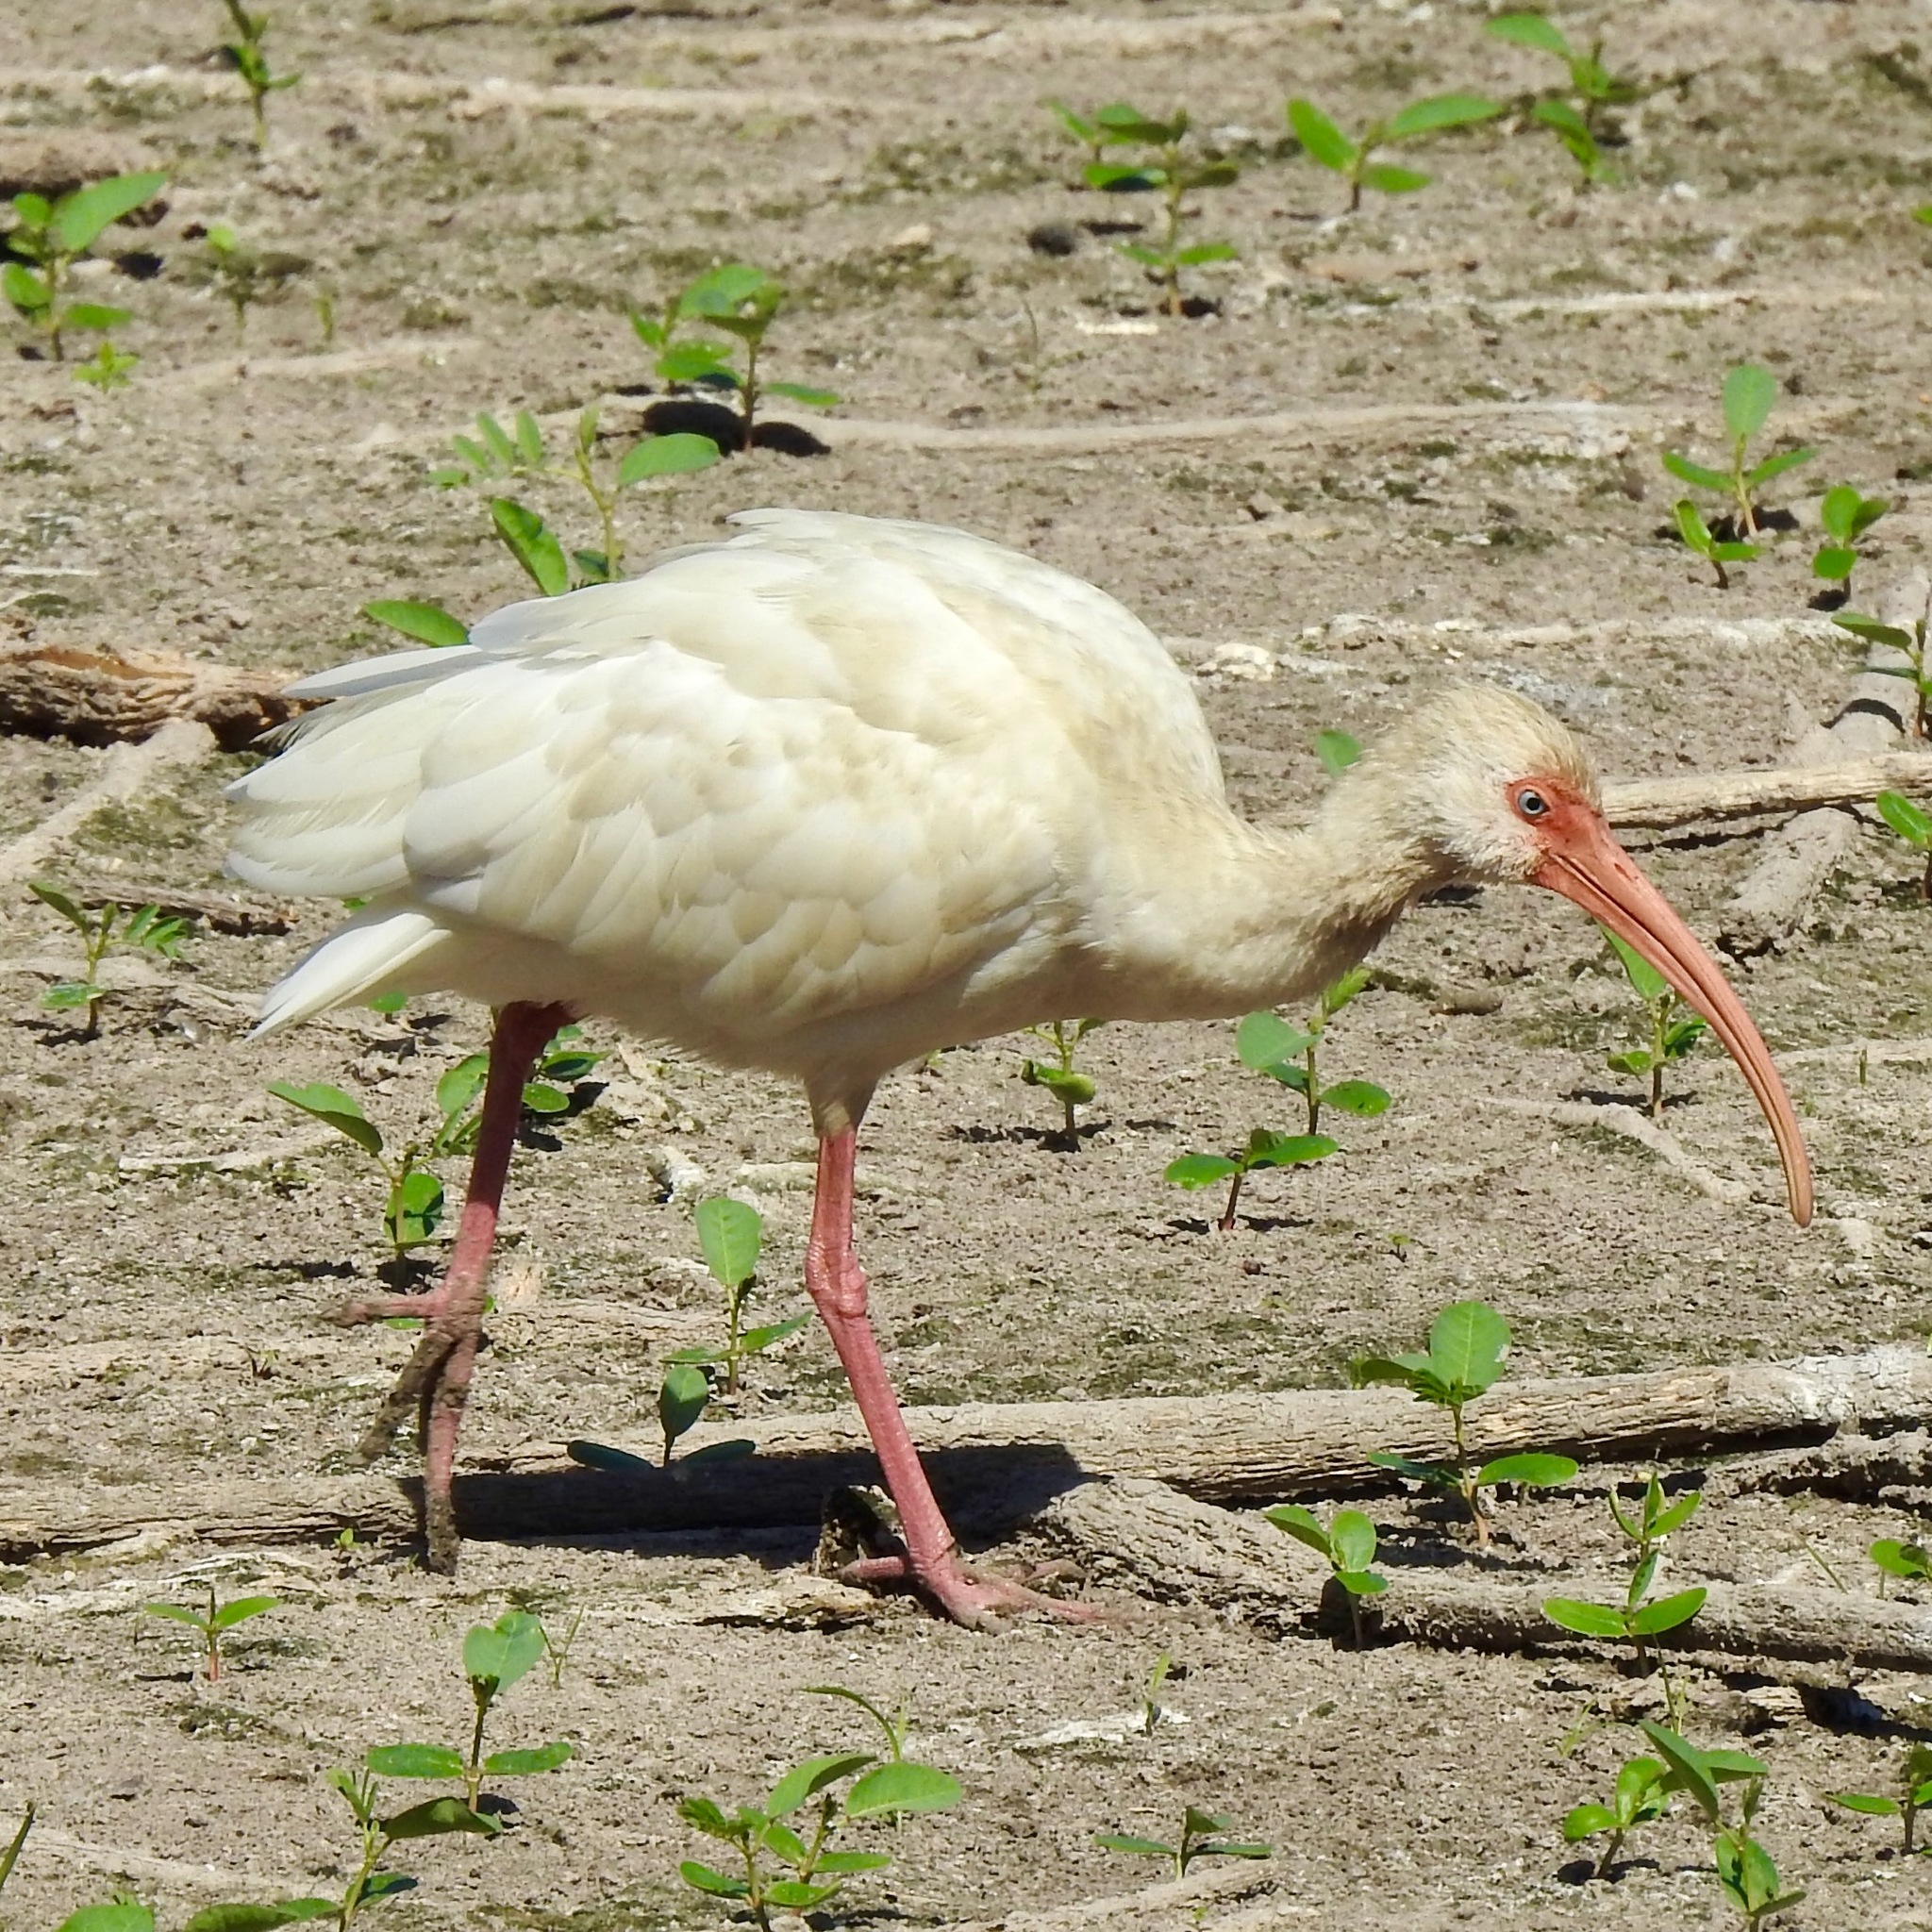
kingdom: Animalia
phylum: Chordata
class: Aves
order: Pelecaniformes
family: Threskiornithidae
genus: Eudocimus
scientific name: Eudocimus albus
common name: White ibis
